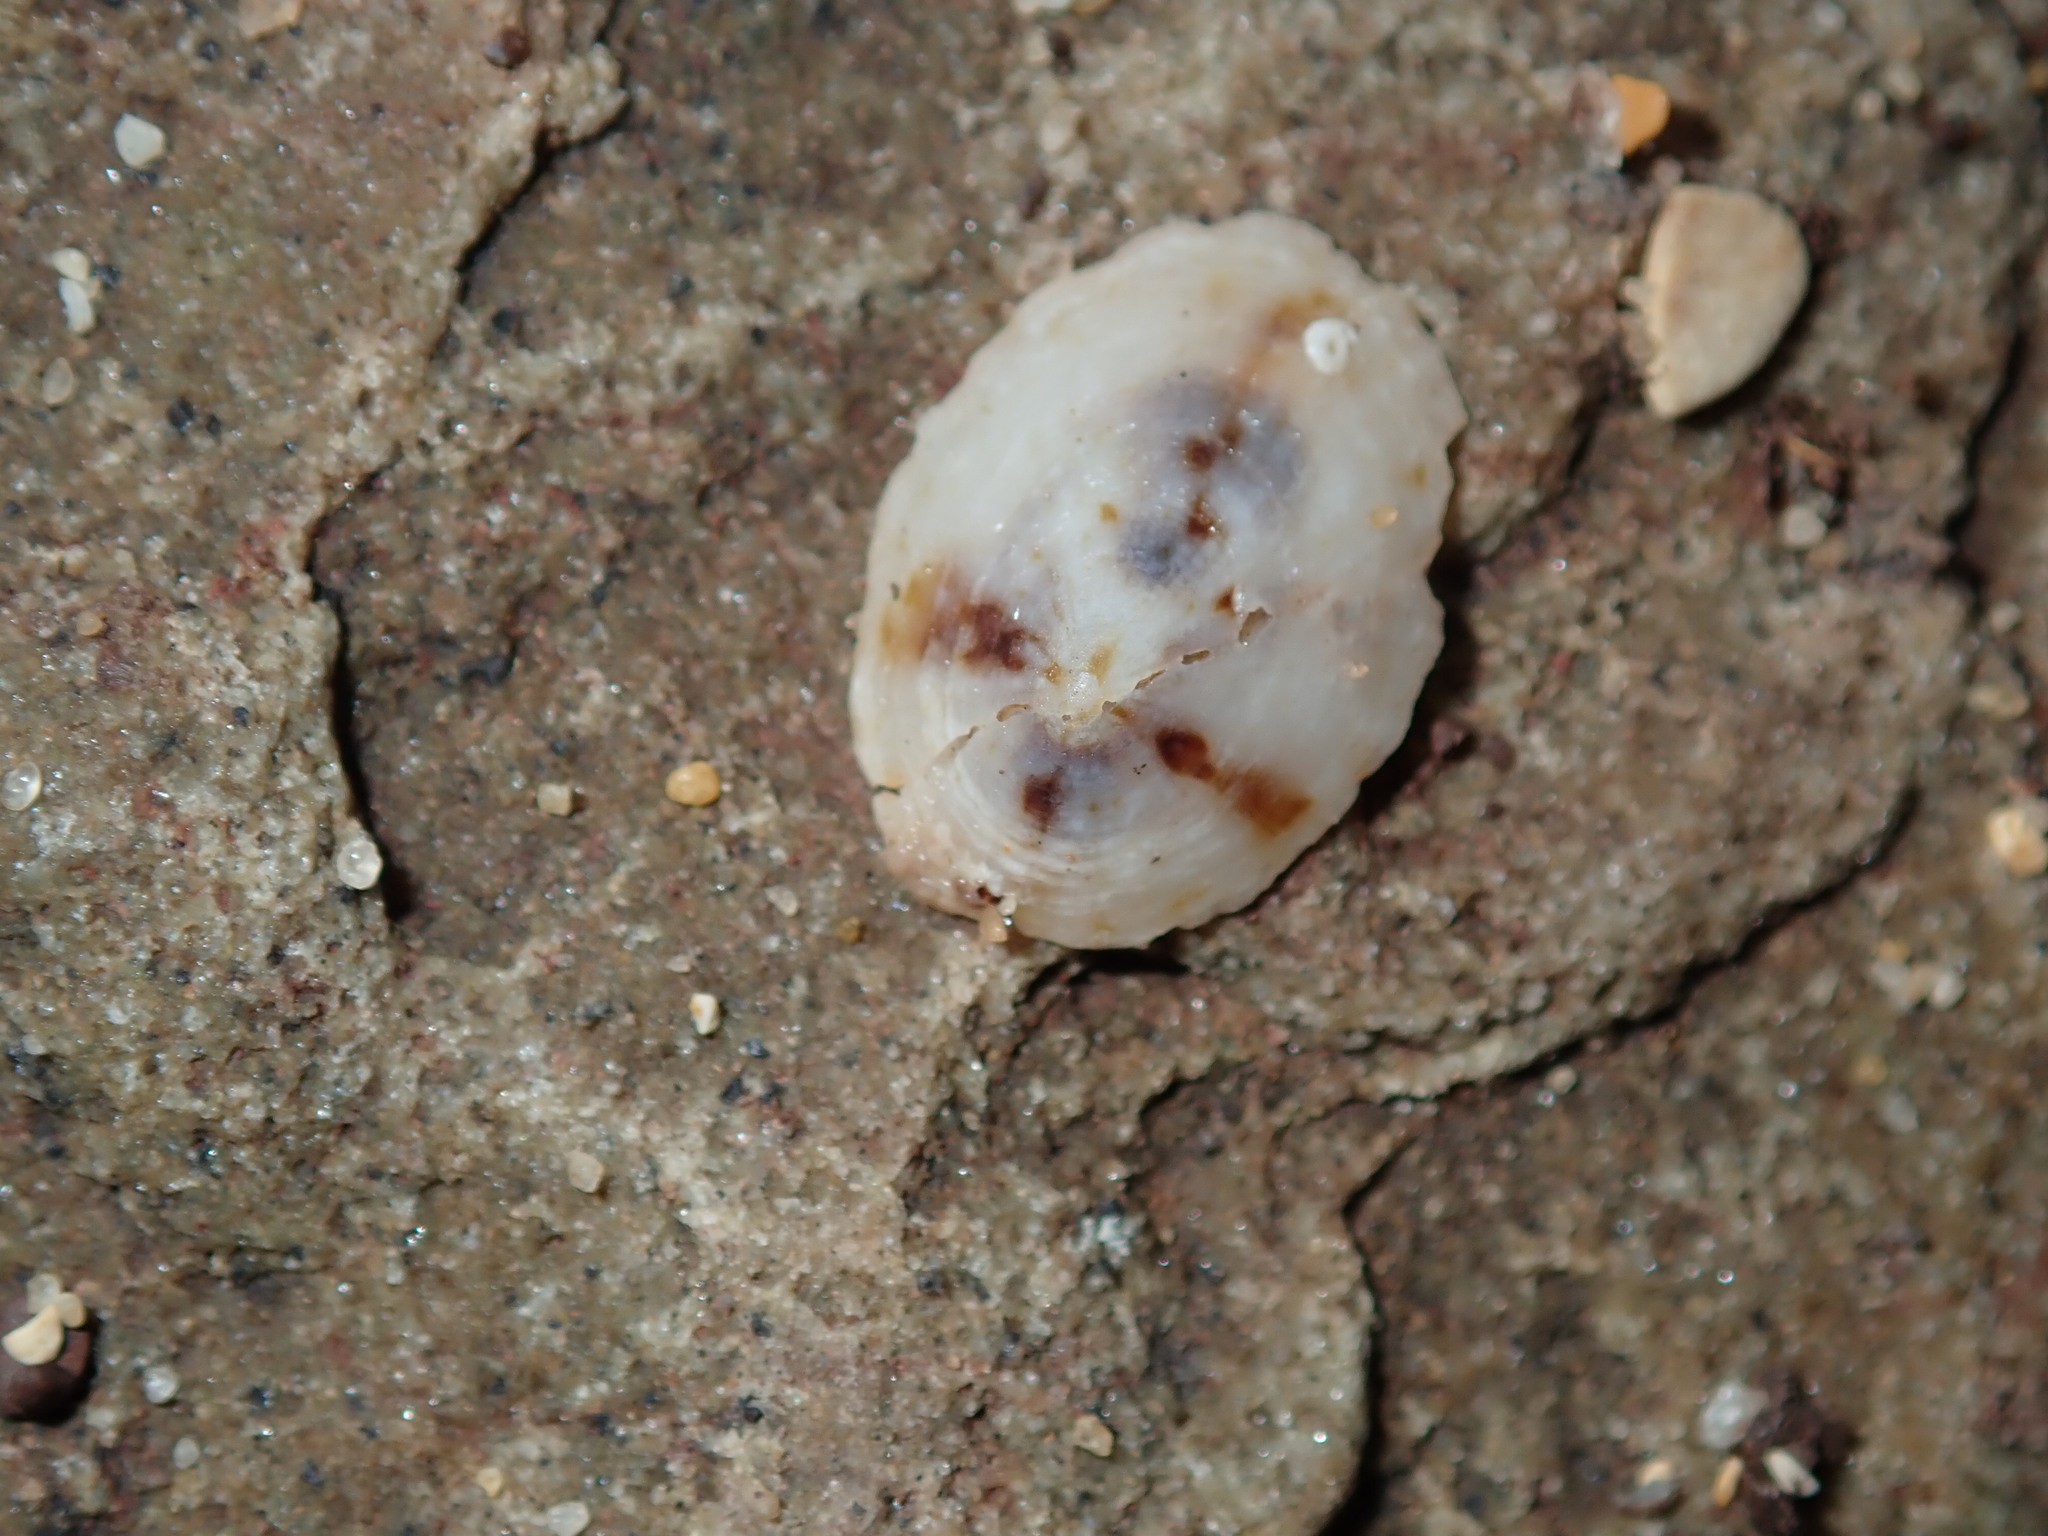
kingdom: Animalia
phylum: Mollusca
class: Gastropoda
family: Lottiidae
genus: Patelloida
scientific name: Patelloida mufria
